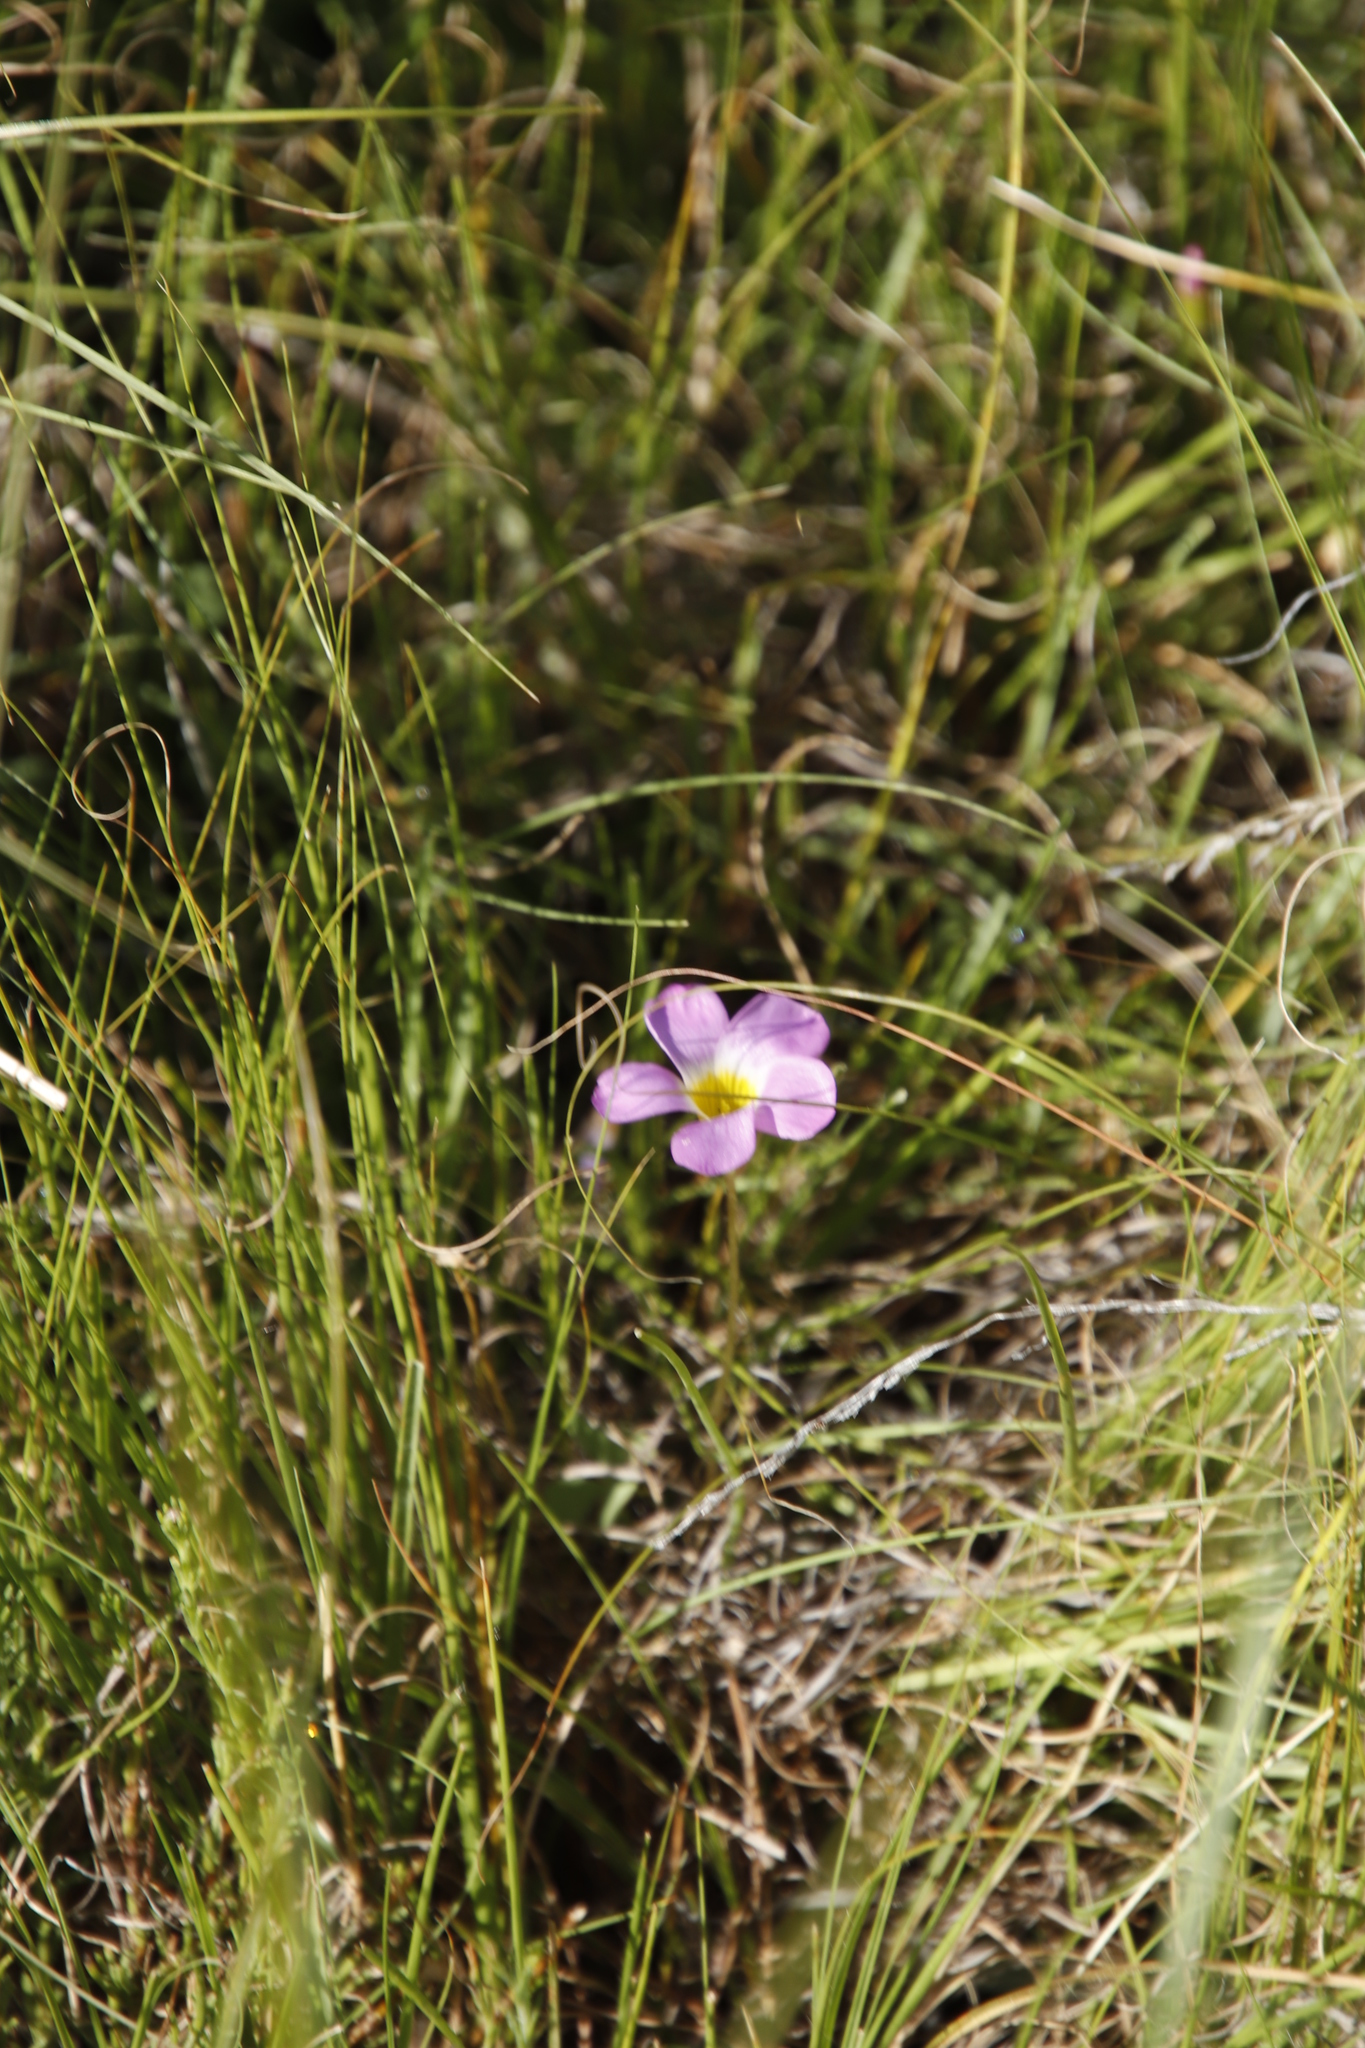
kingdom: Plantae
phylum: Tracheophyta
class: Magnoliopsida
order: Oxalidales
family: Oxalidaceae
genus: Oxalis
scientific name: Oxalis obliquifolia
